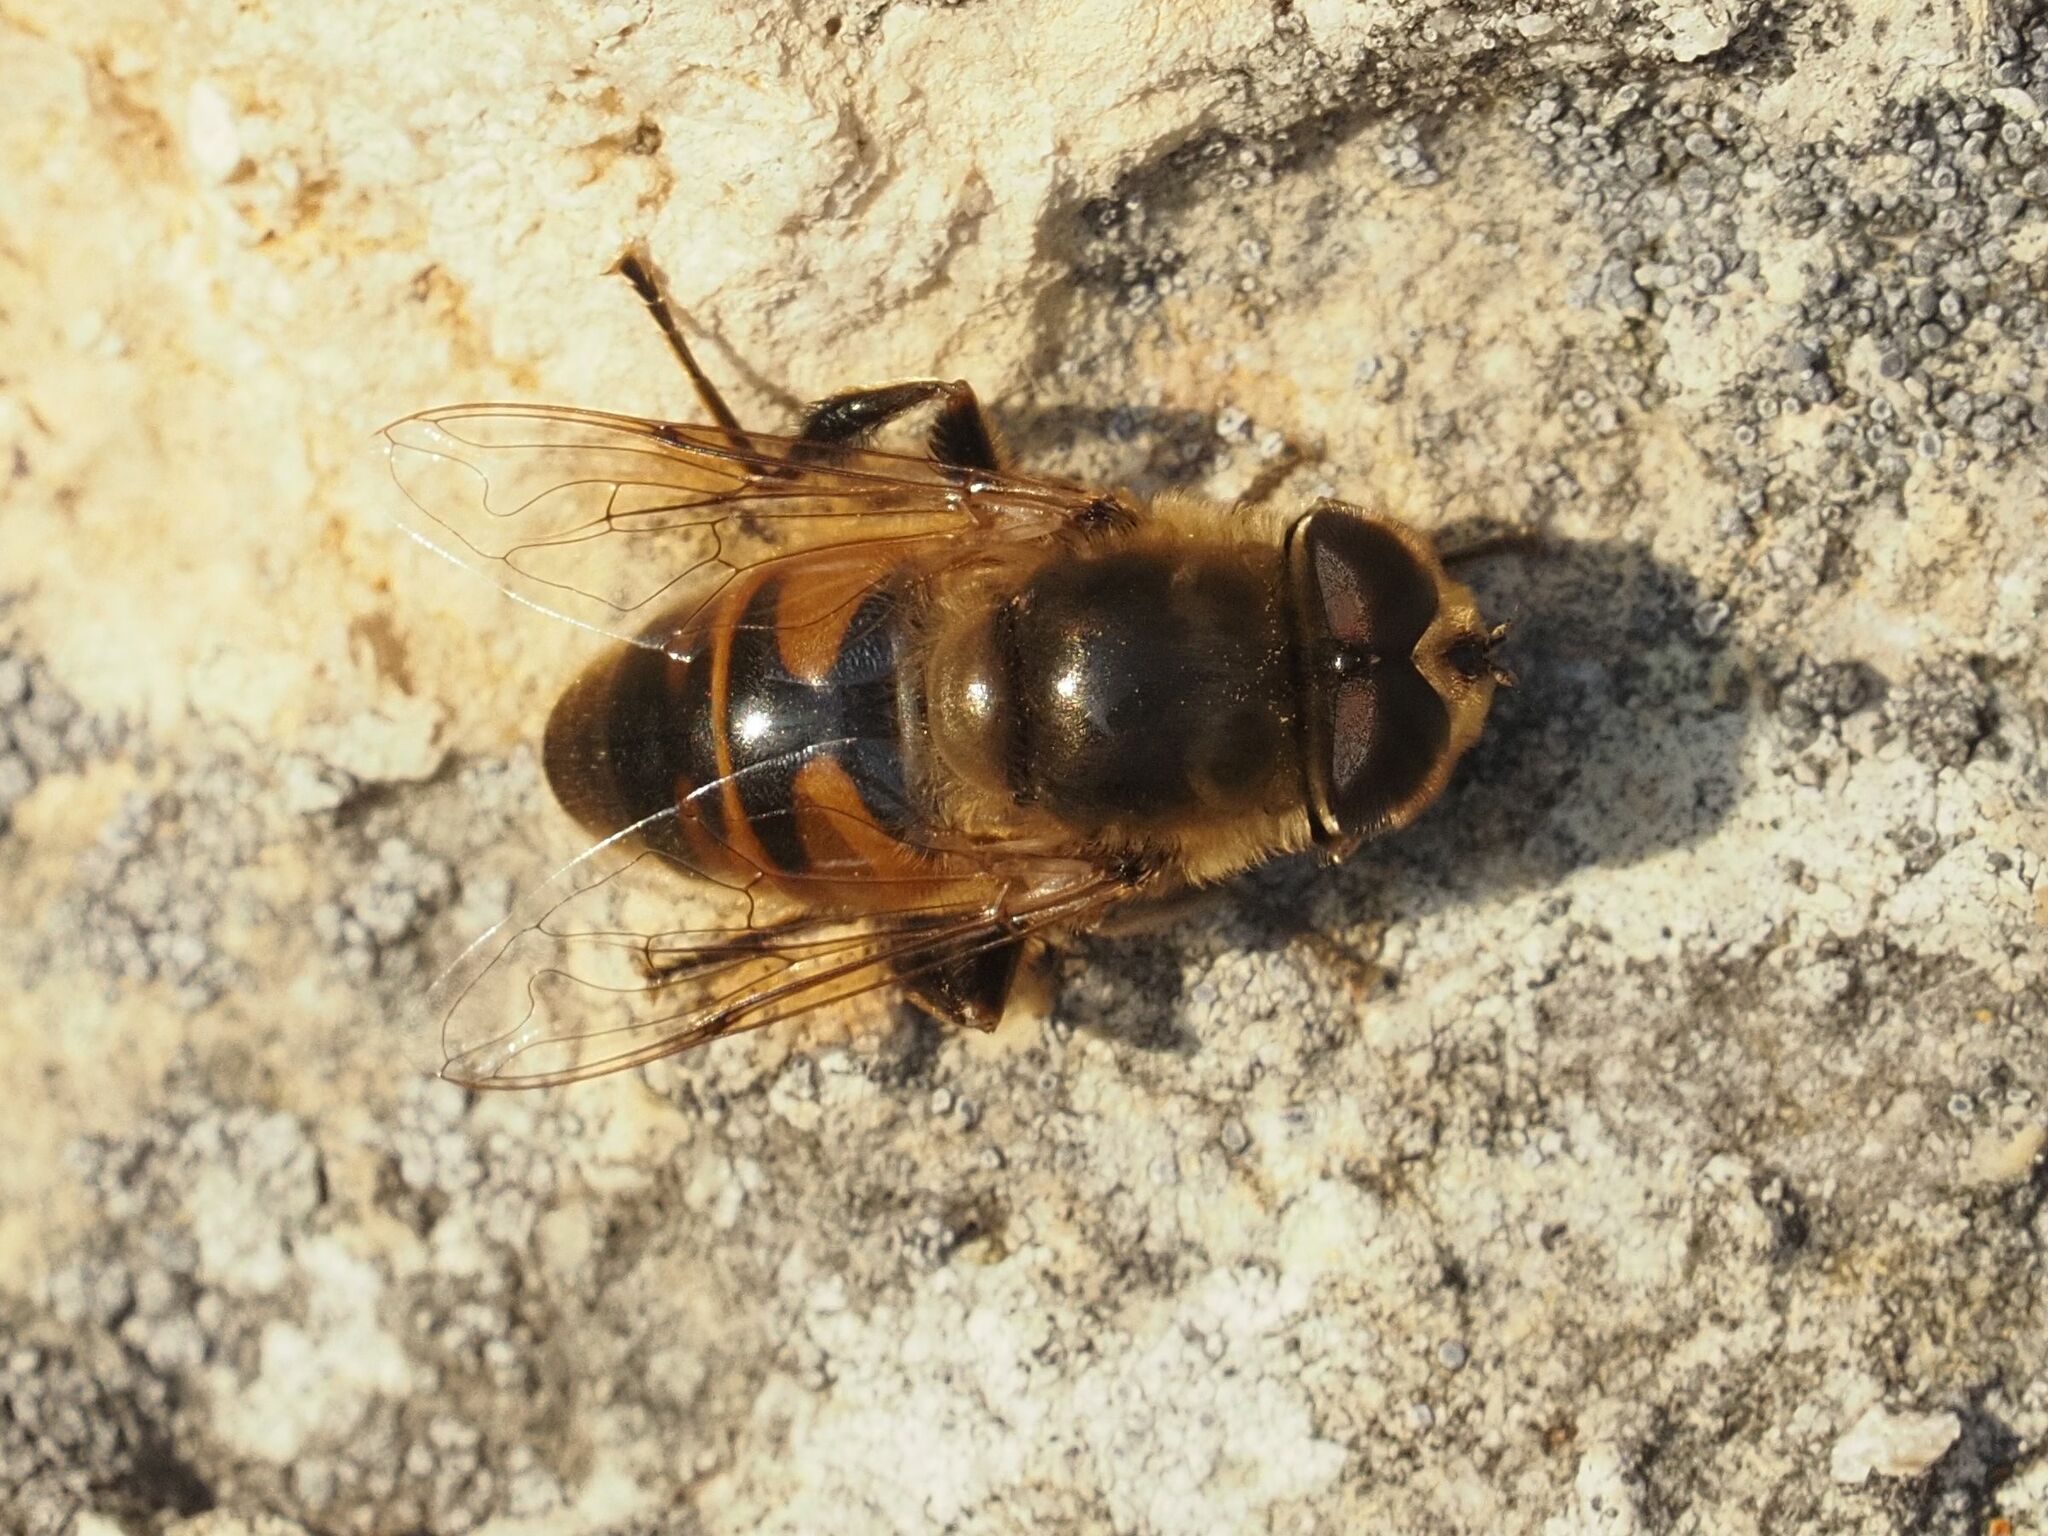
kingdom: Animalia
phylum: Arthropoda
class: Insecta
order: Diptera
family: Syrphidae
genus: Eristalis
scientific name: Eristalis tenax
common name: Drone fly
